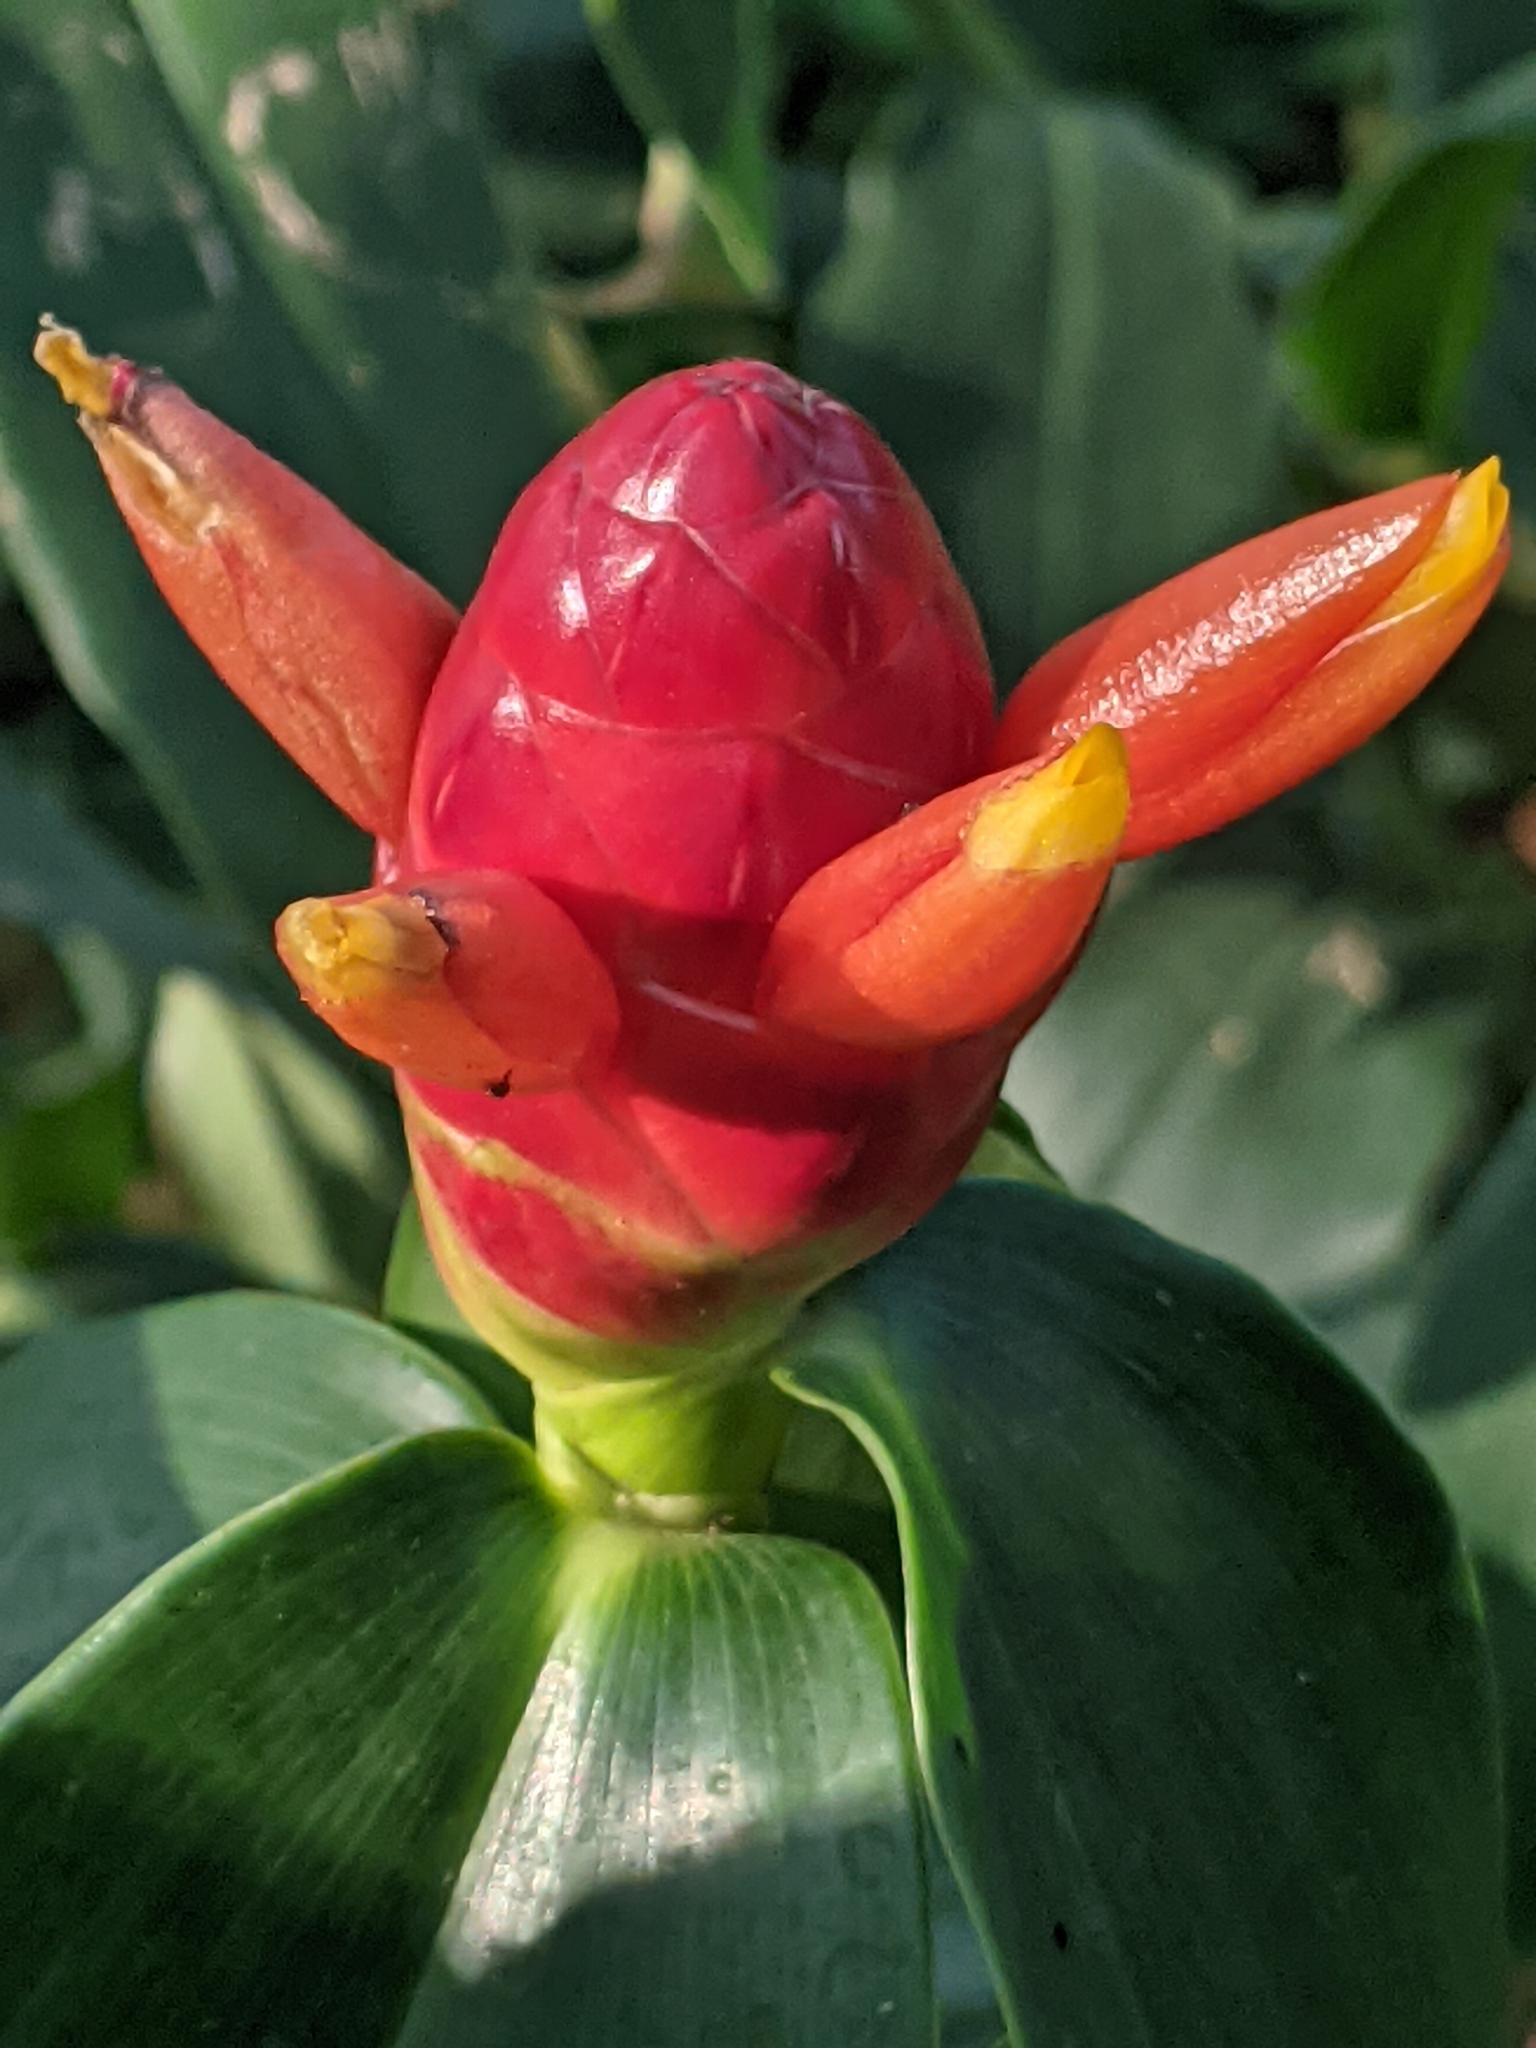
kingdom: Plantae
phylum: Tracheophyta
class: Liliopsida
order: Zingiberales
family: Costaceae
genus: Costus
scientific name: Costus woodsonii
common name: Scarlet spiral-ginger
